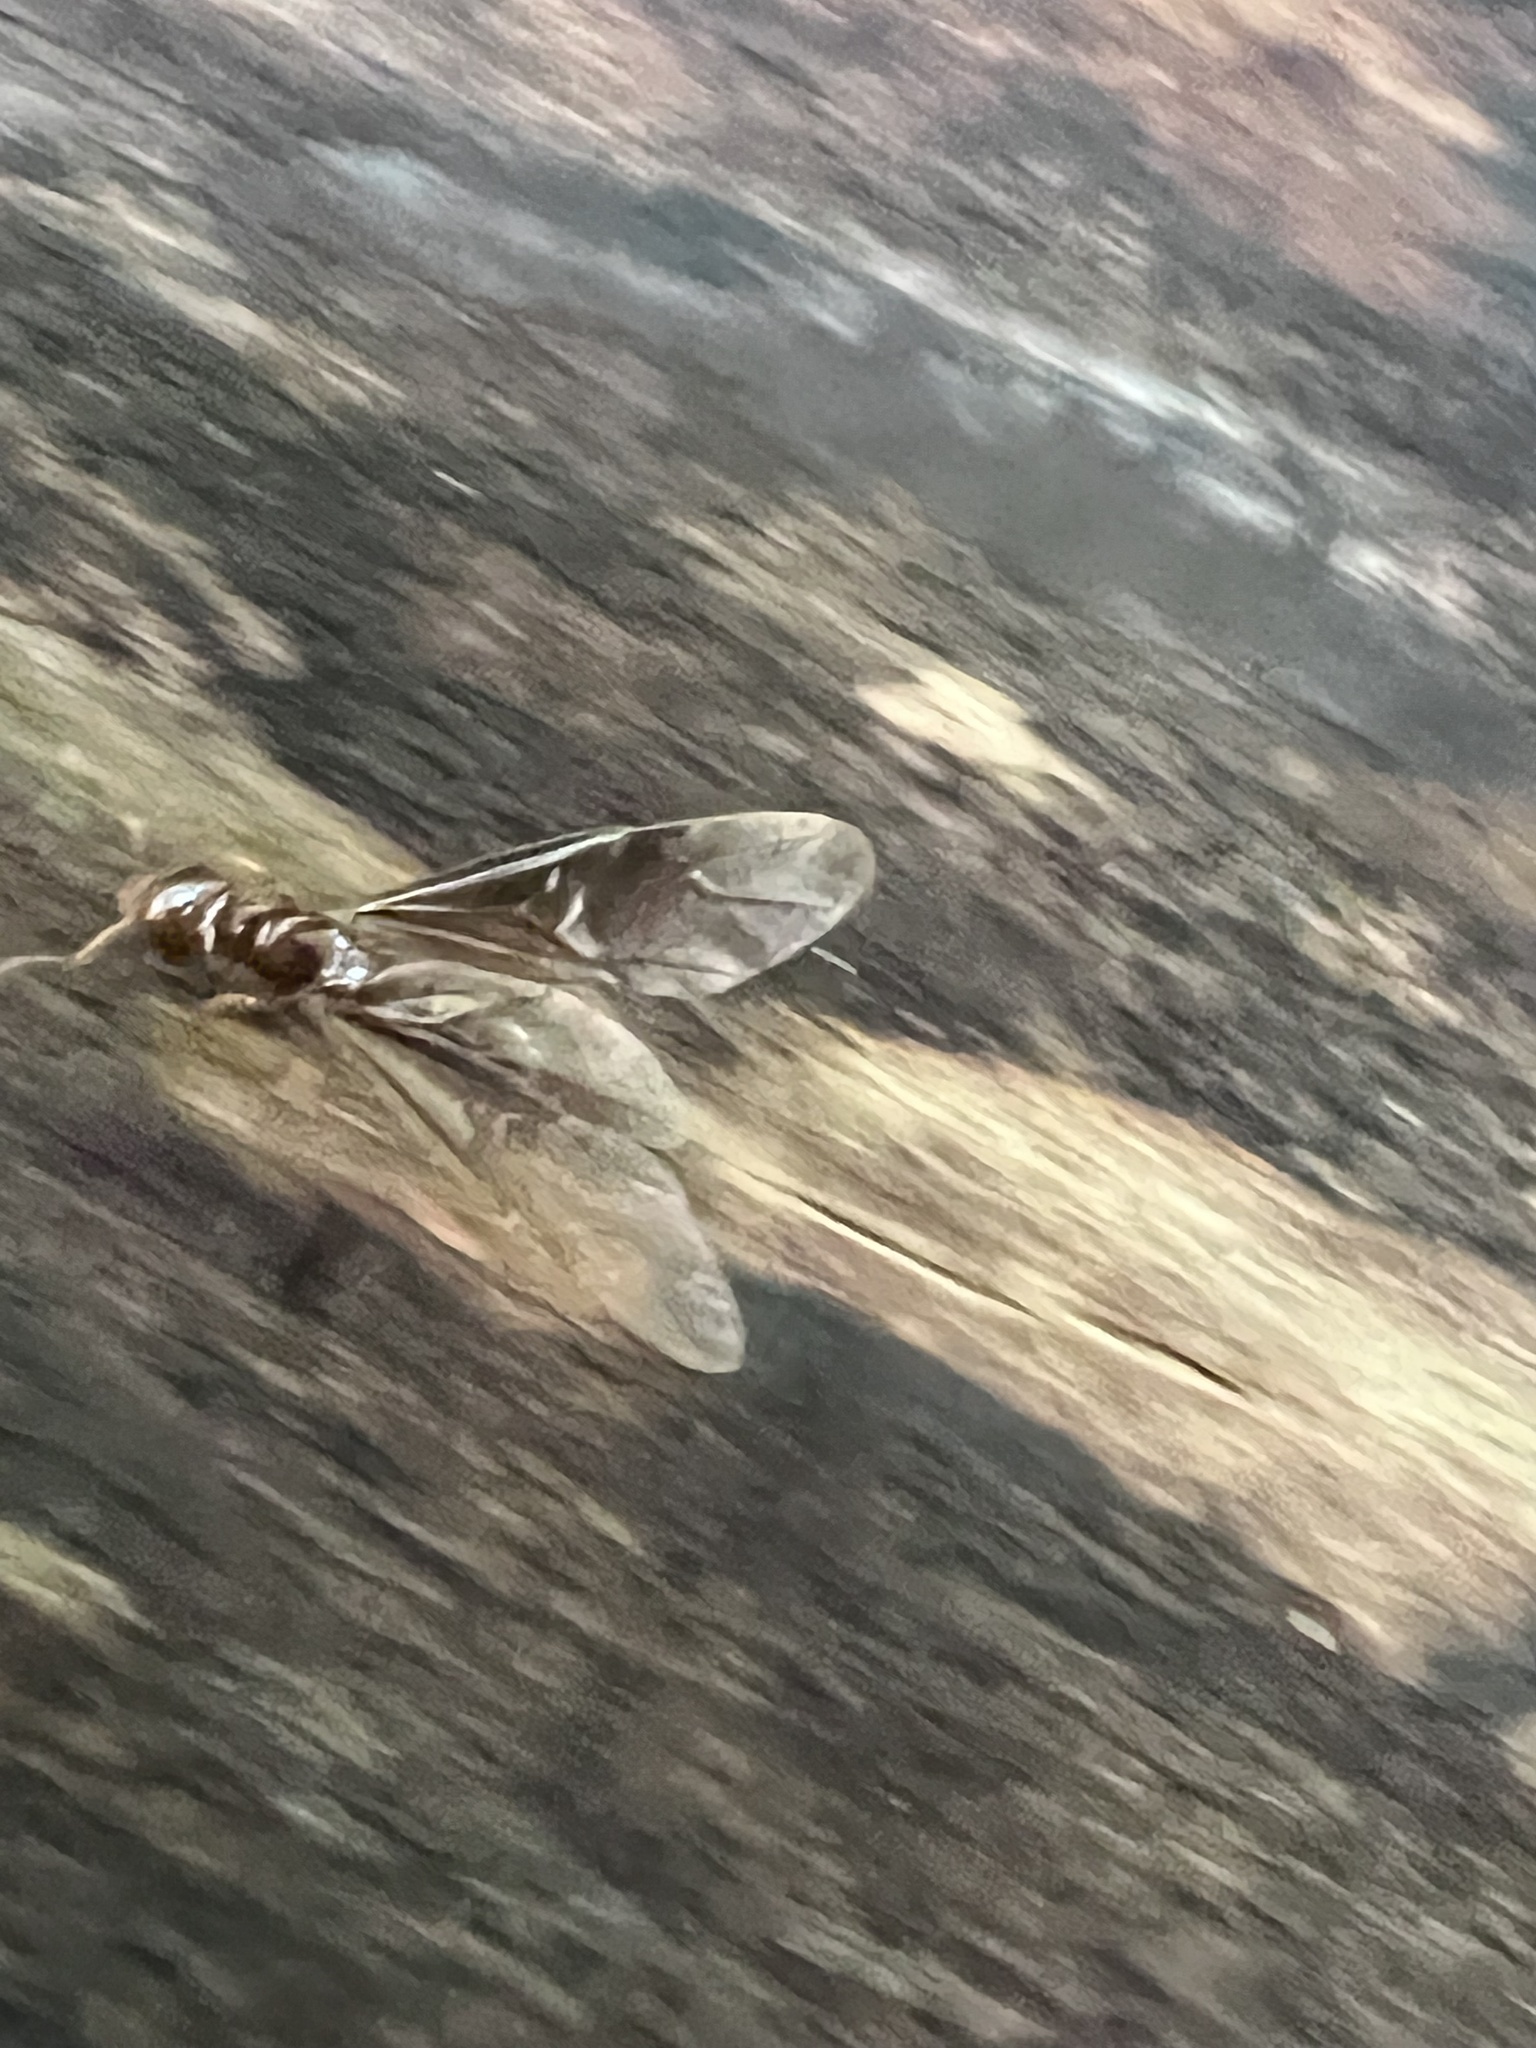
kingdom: Animalia
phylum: Arthropoda
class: Insecta
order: Hymenoptera
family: Formicidae
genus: Lasius
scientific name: Lasius claviger
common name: Common citronella ant
